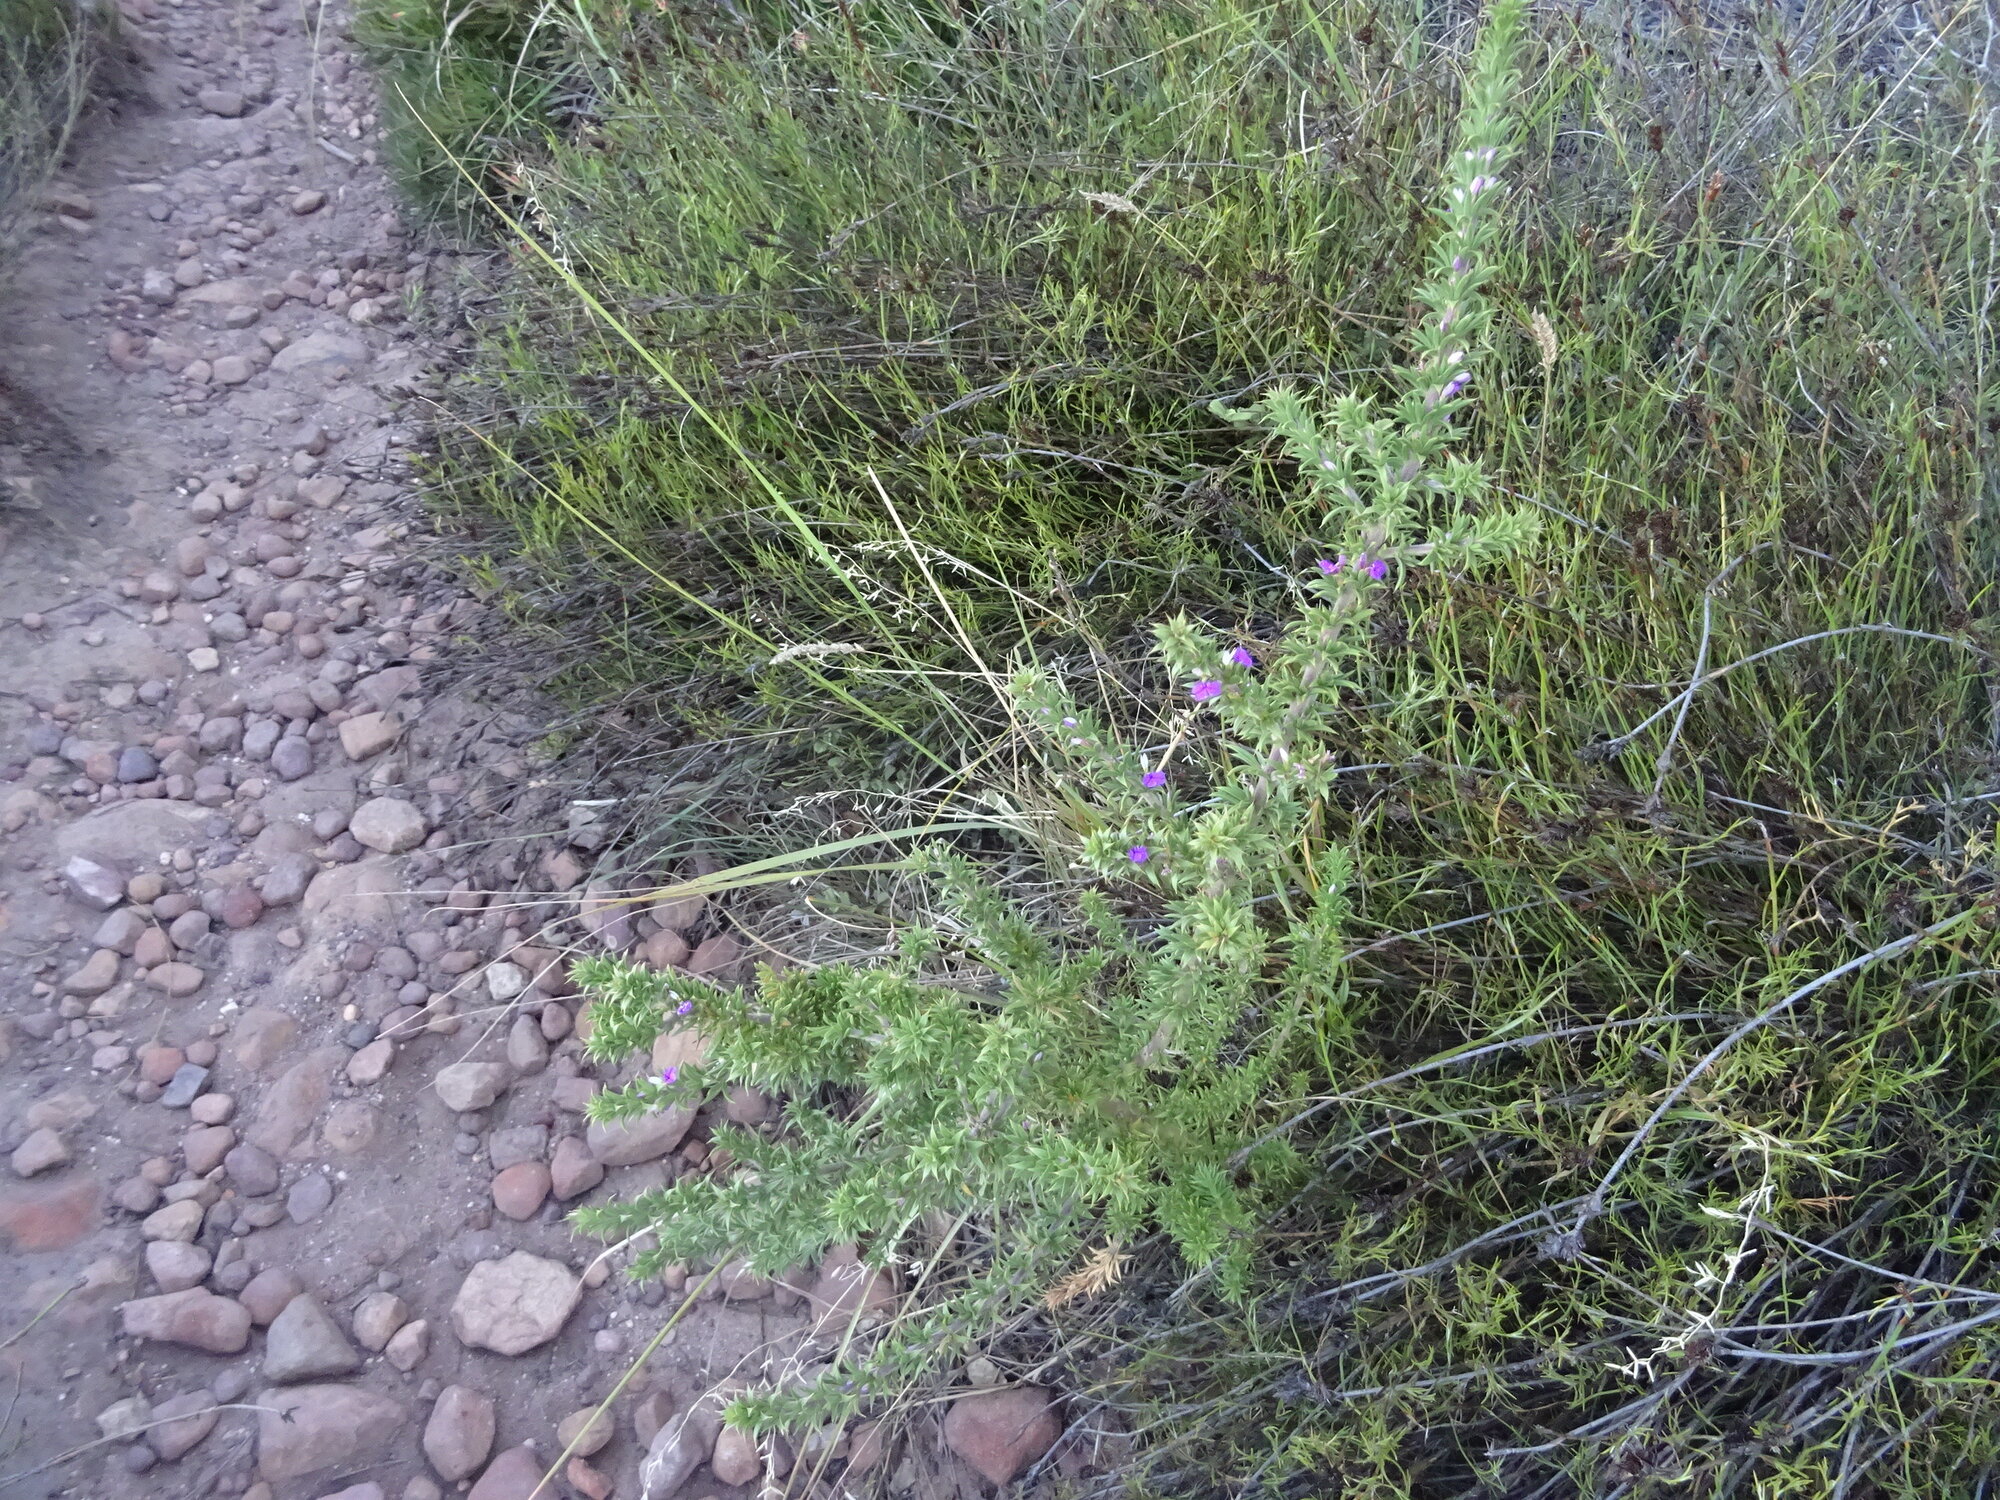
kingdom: Plantae
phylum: Tracheophyta
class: Magnoliopsida
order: Fabales
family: Polygalaceae
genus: Muraltia
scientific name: Muraltia heisteria
